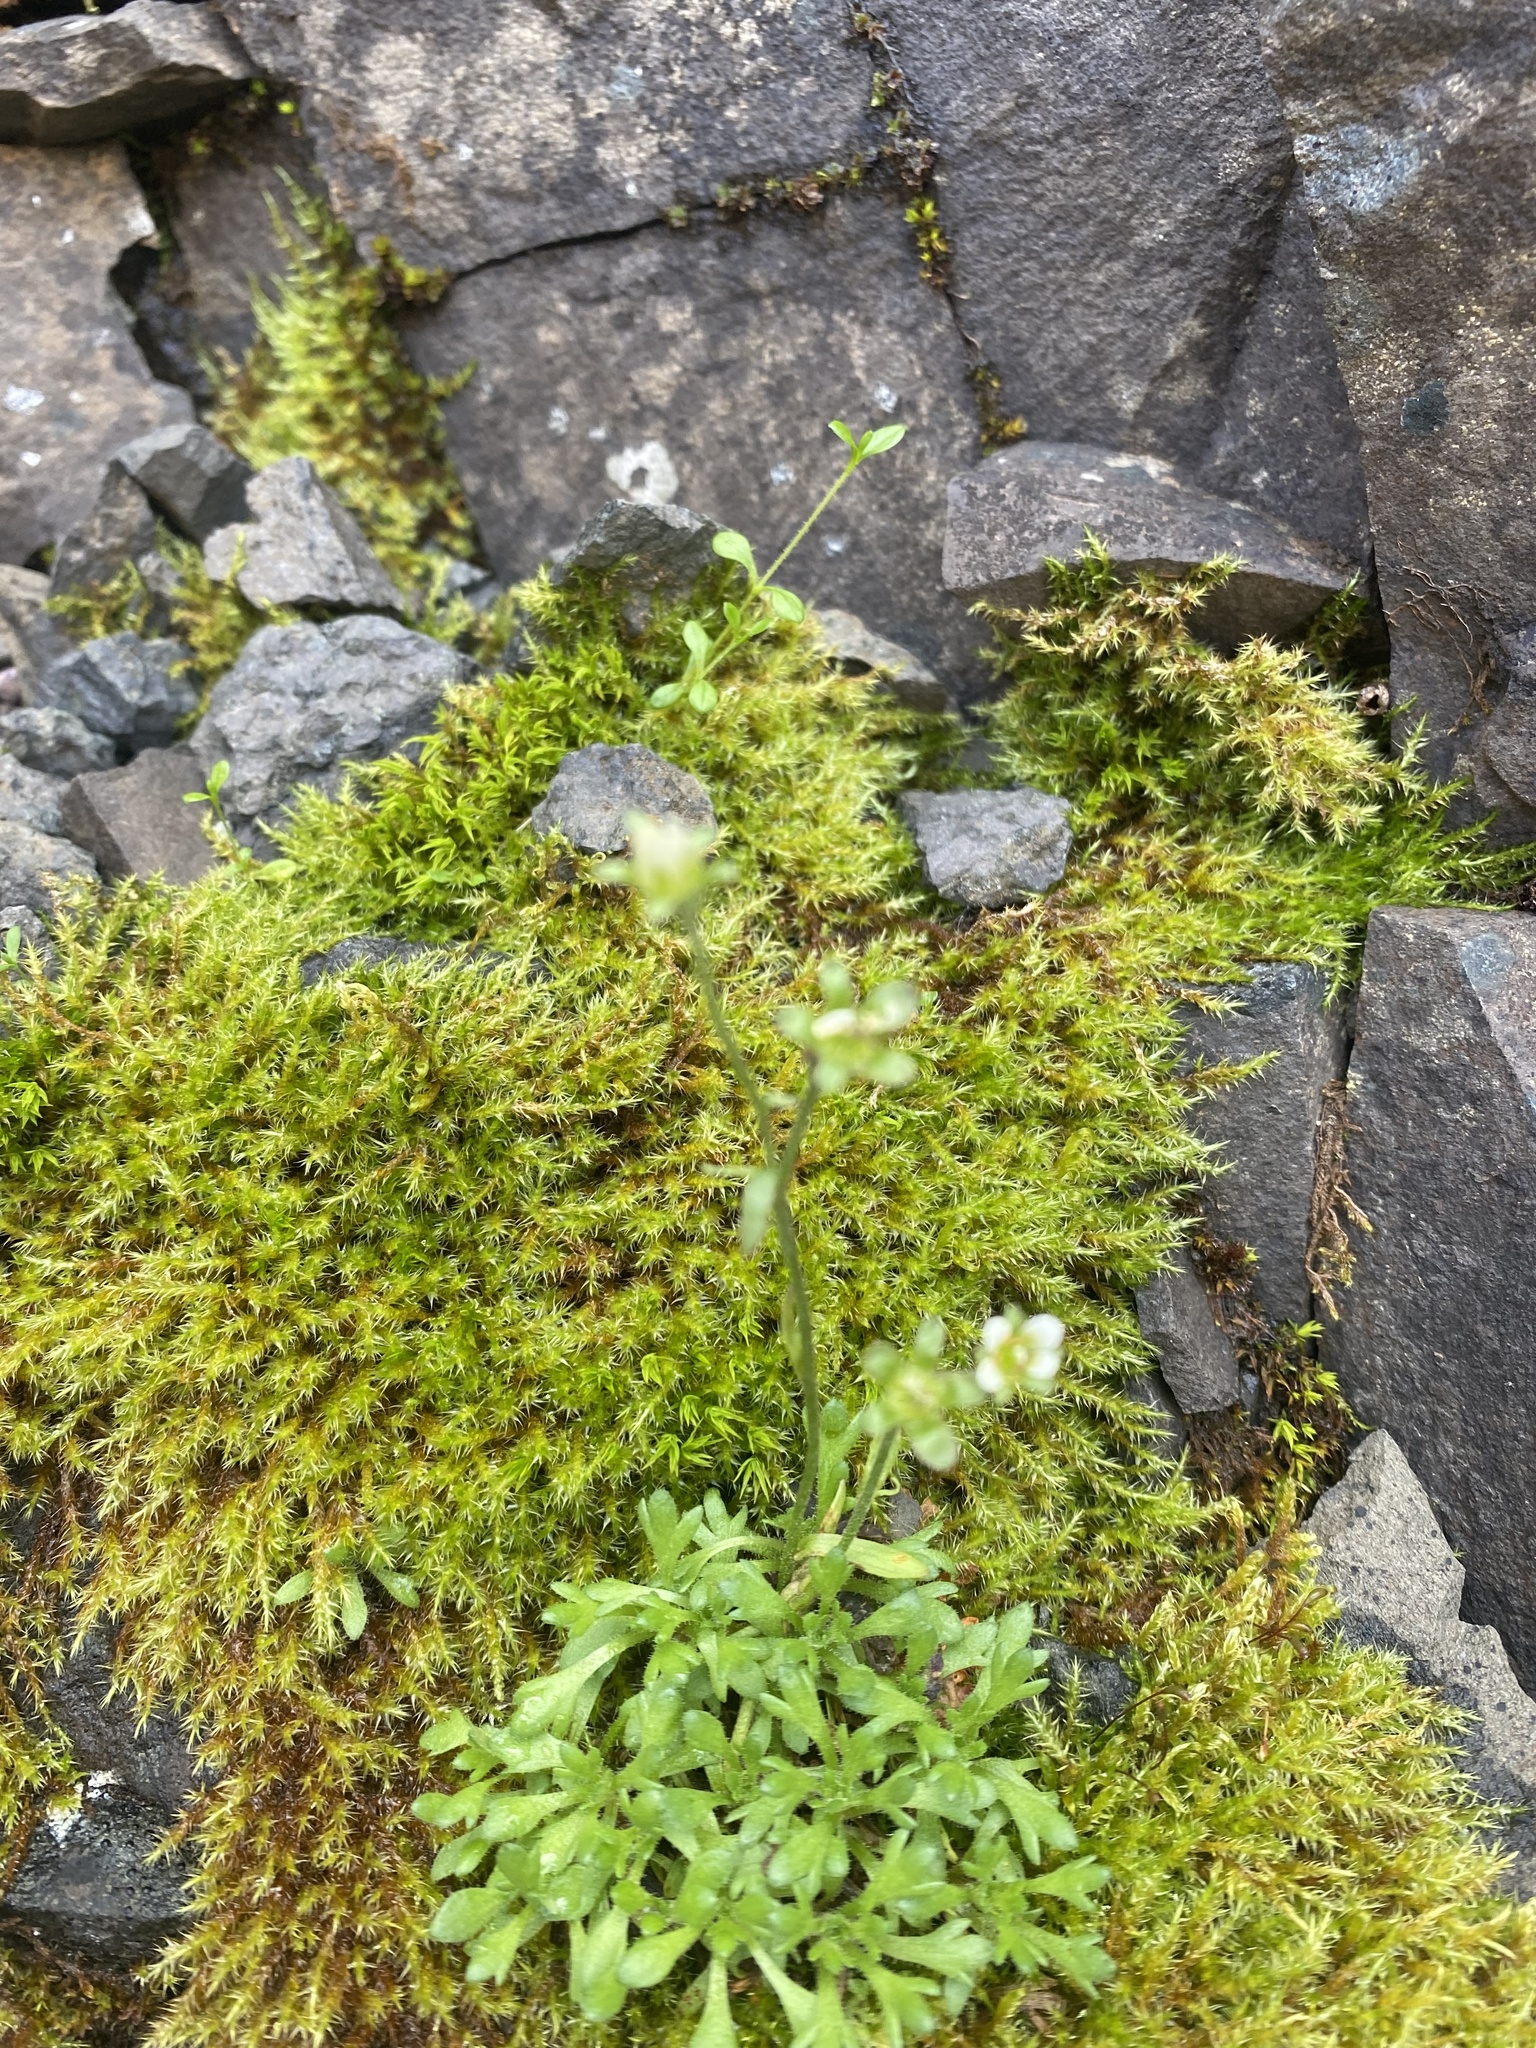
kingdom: Plantae
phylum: Tracheophyta
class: Magnoliopsida
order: Saxifragales
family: Saxifragaceae
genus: Saxifraga
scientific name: Saxifraga cespitosa
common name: Tufted saxifrage
